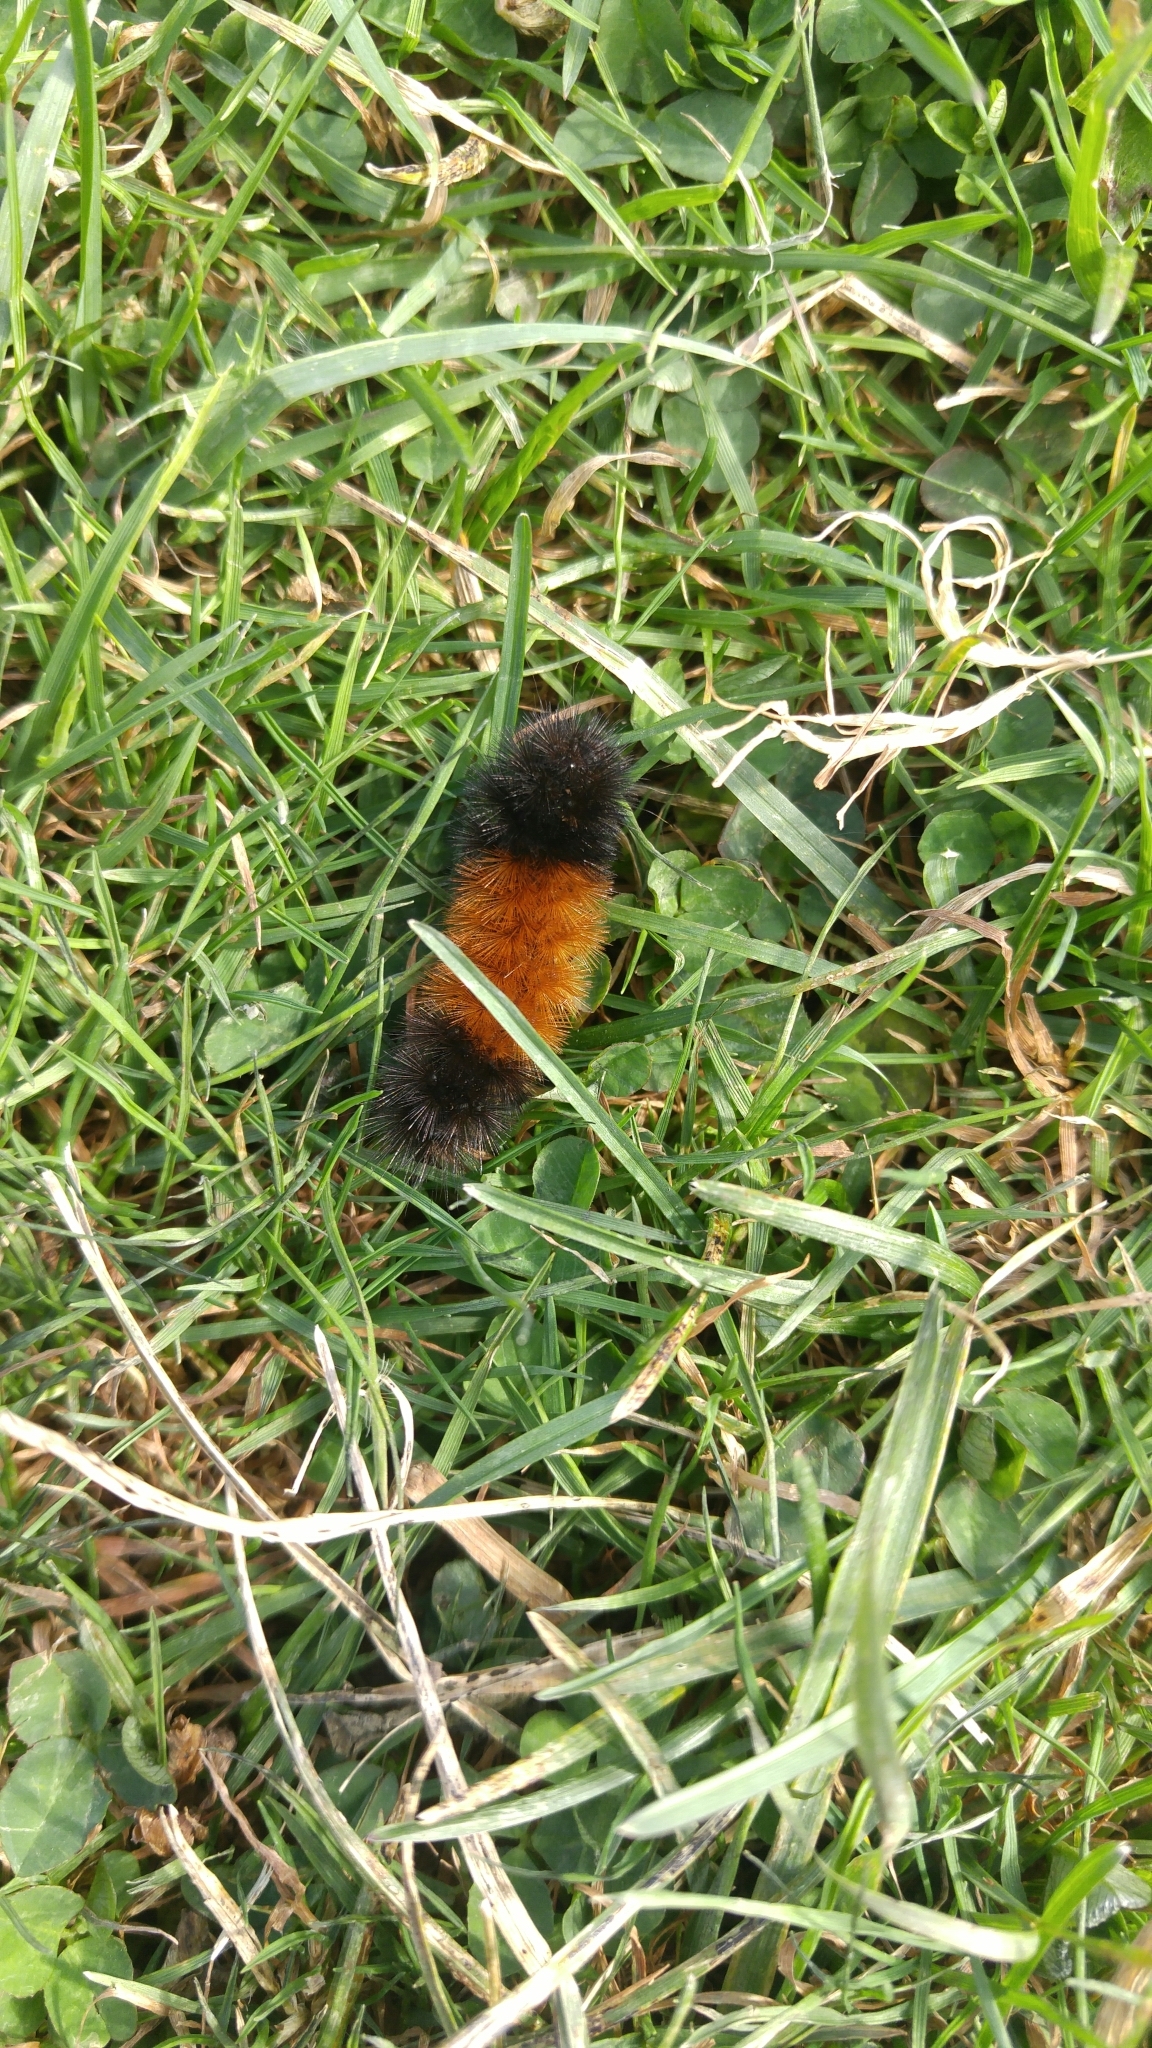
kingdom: Animalia
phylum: Arthropoda
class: Insecta
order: Lepidoptera
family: Erebidae
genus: Pyrrharctia
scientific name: Pyrrharctia isabella
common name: Isabella tiger moth
